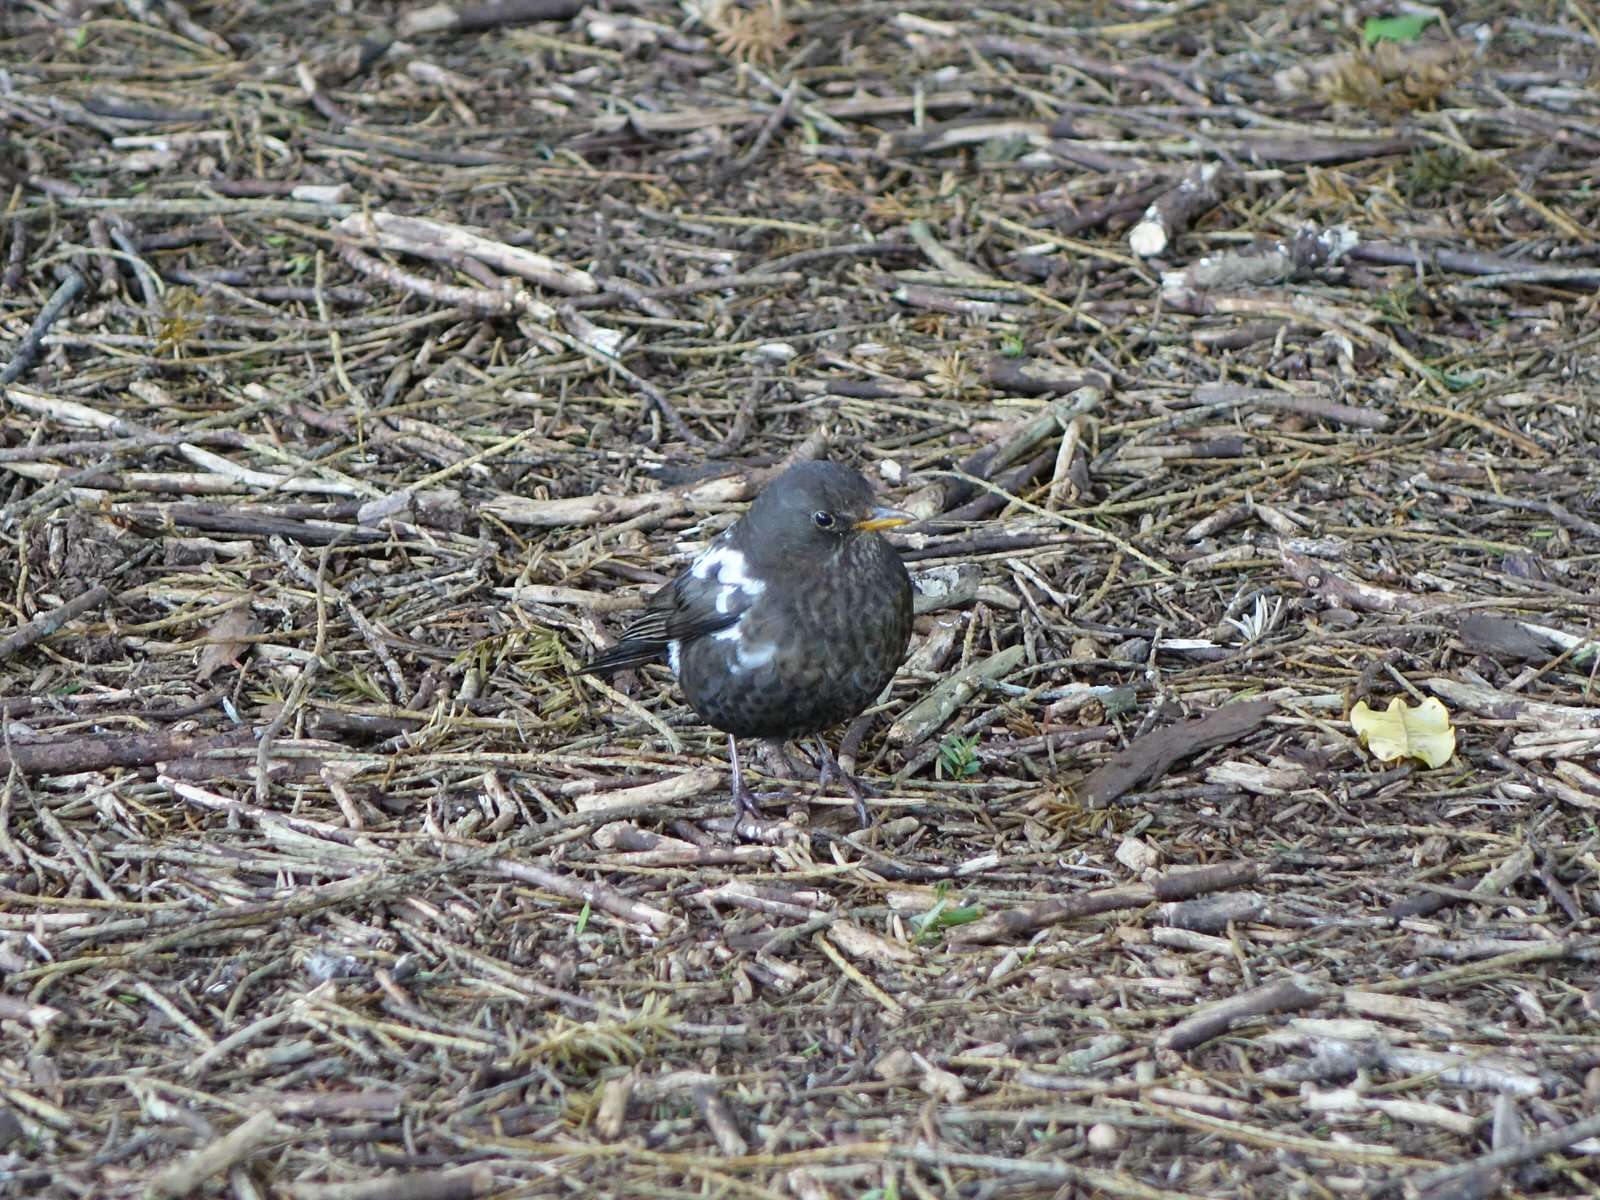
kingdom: Animalia
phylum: Chordata
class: Aves
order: Passeriformes
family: Turdidae
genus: Turdus
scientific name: Turdus merula
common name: Common blackbird
